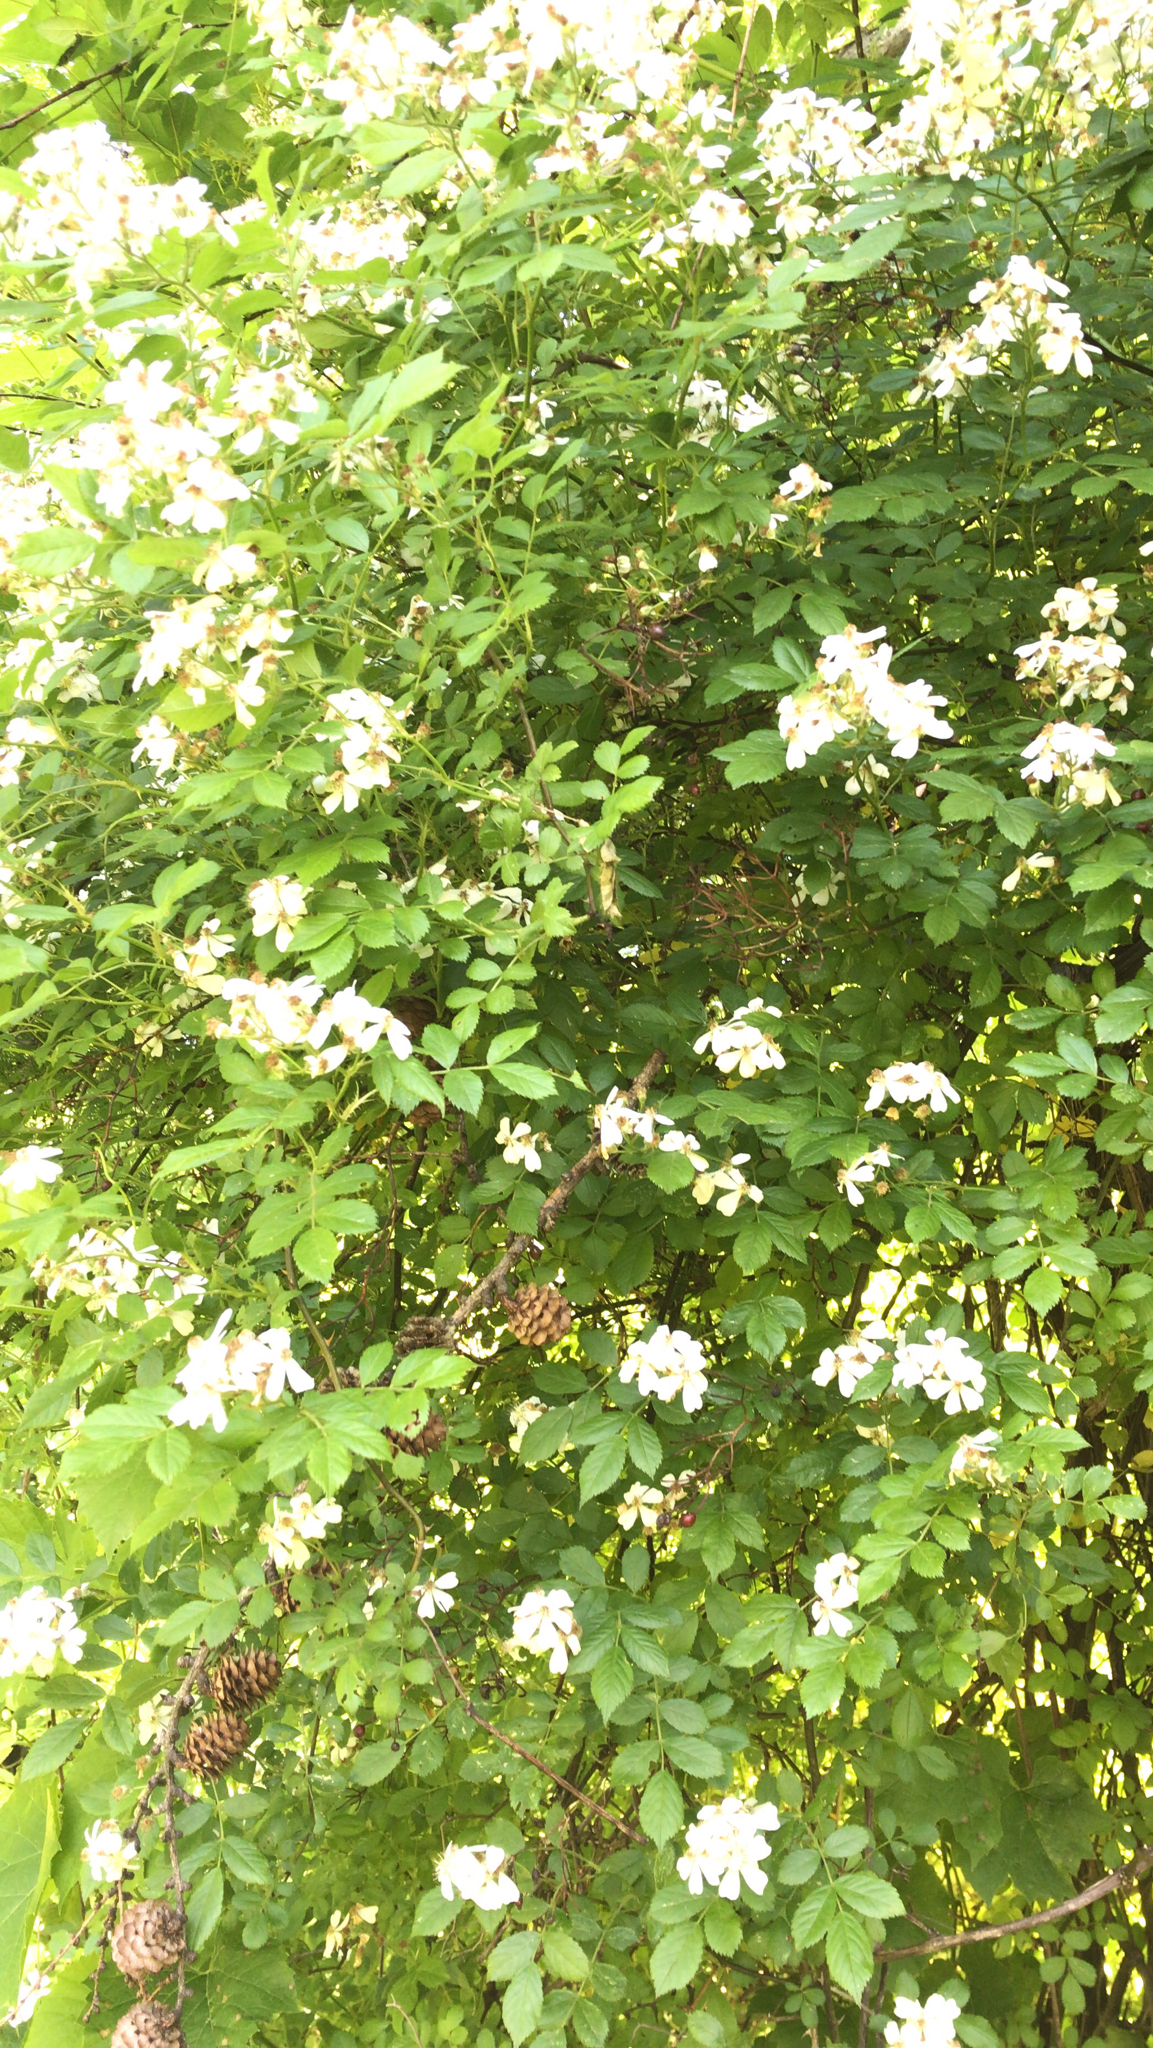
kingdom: Plantae
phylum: Tracheophyta
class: Magnoliopsida
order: Rosales
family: Rosaceae
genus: Rosa
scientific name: Rosa multiflora
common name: Multiflora rose
